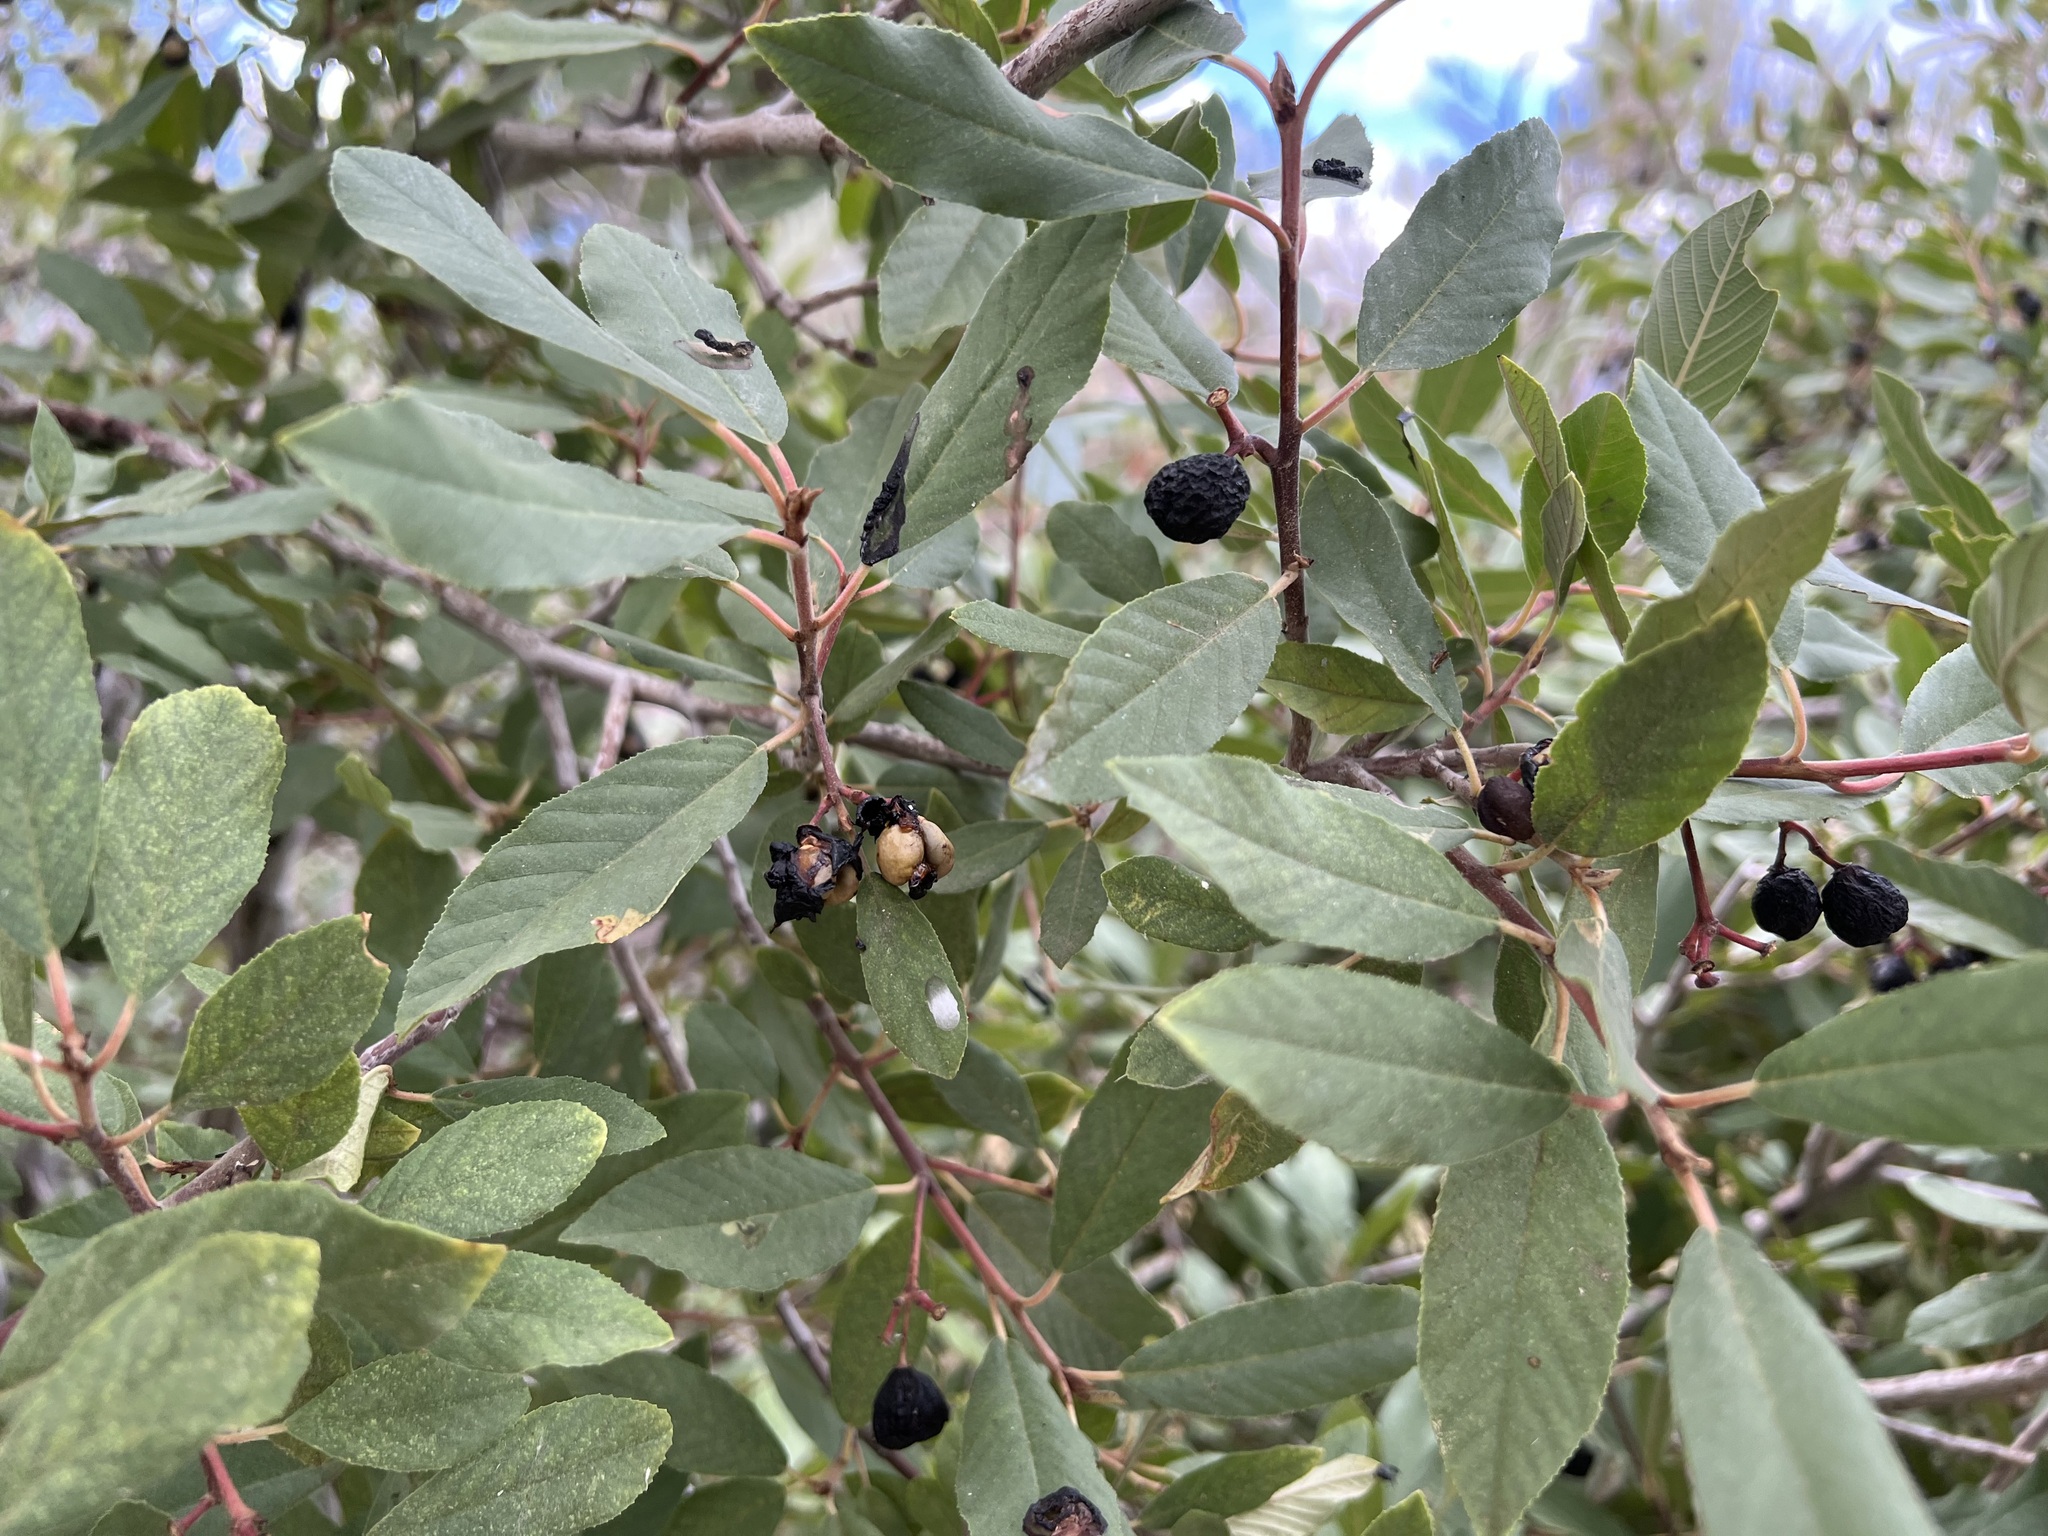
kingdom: Plantae
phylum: Tracheophyta
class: Magnoliopsida
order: Rosales
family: Rhamnaceae
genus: Frangula
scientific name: Frangula californica
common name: California buckthorn
